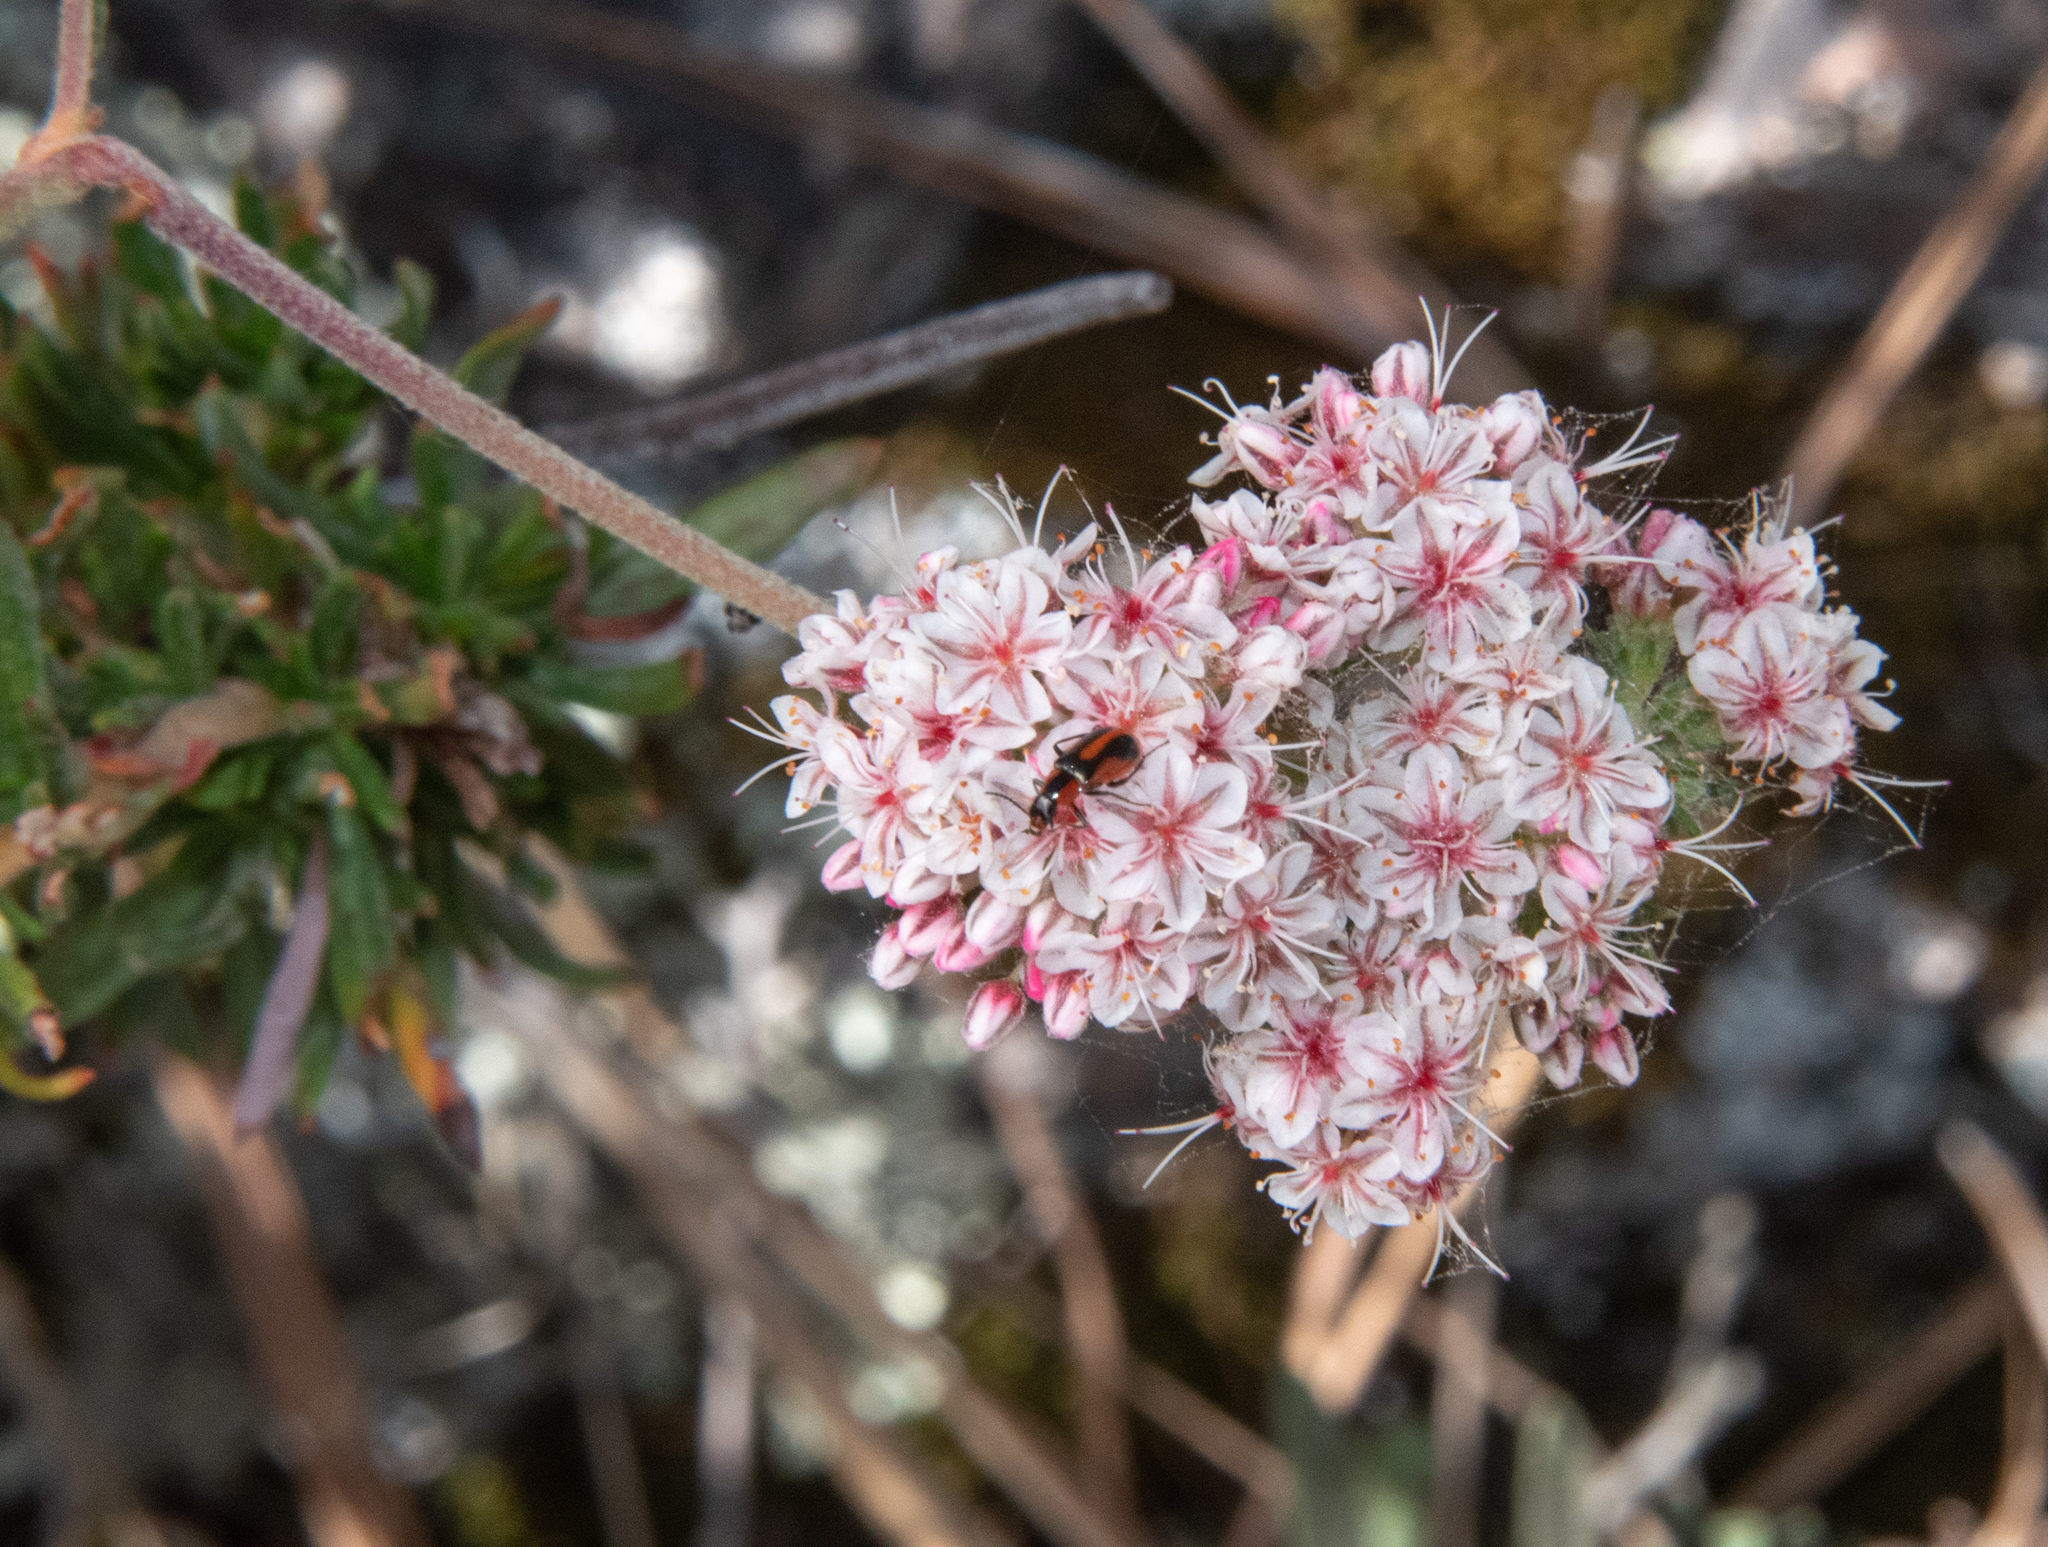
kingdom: Plantae
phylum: Tracheophyta
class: Magnoliopsida
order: Caryophyllales
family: Polygonaceae
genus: Eriogonum
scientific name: Eriogonum fasciculatum
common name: California wild buckwheat
